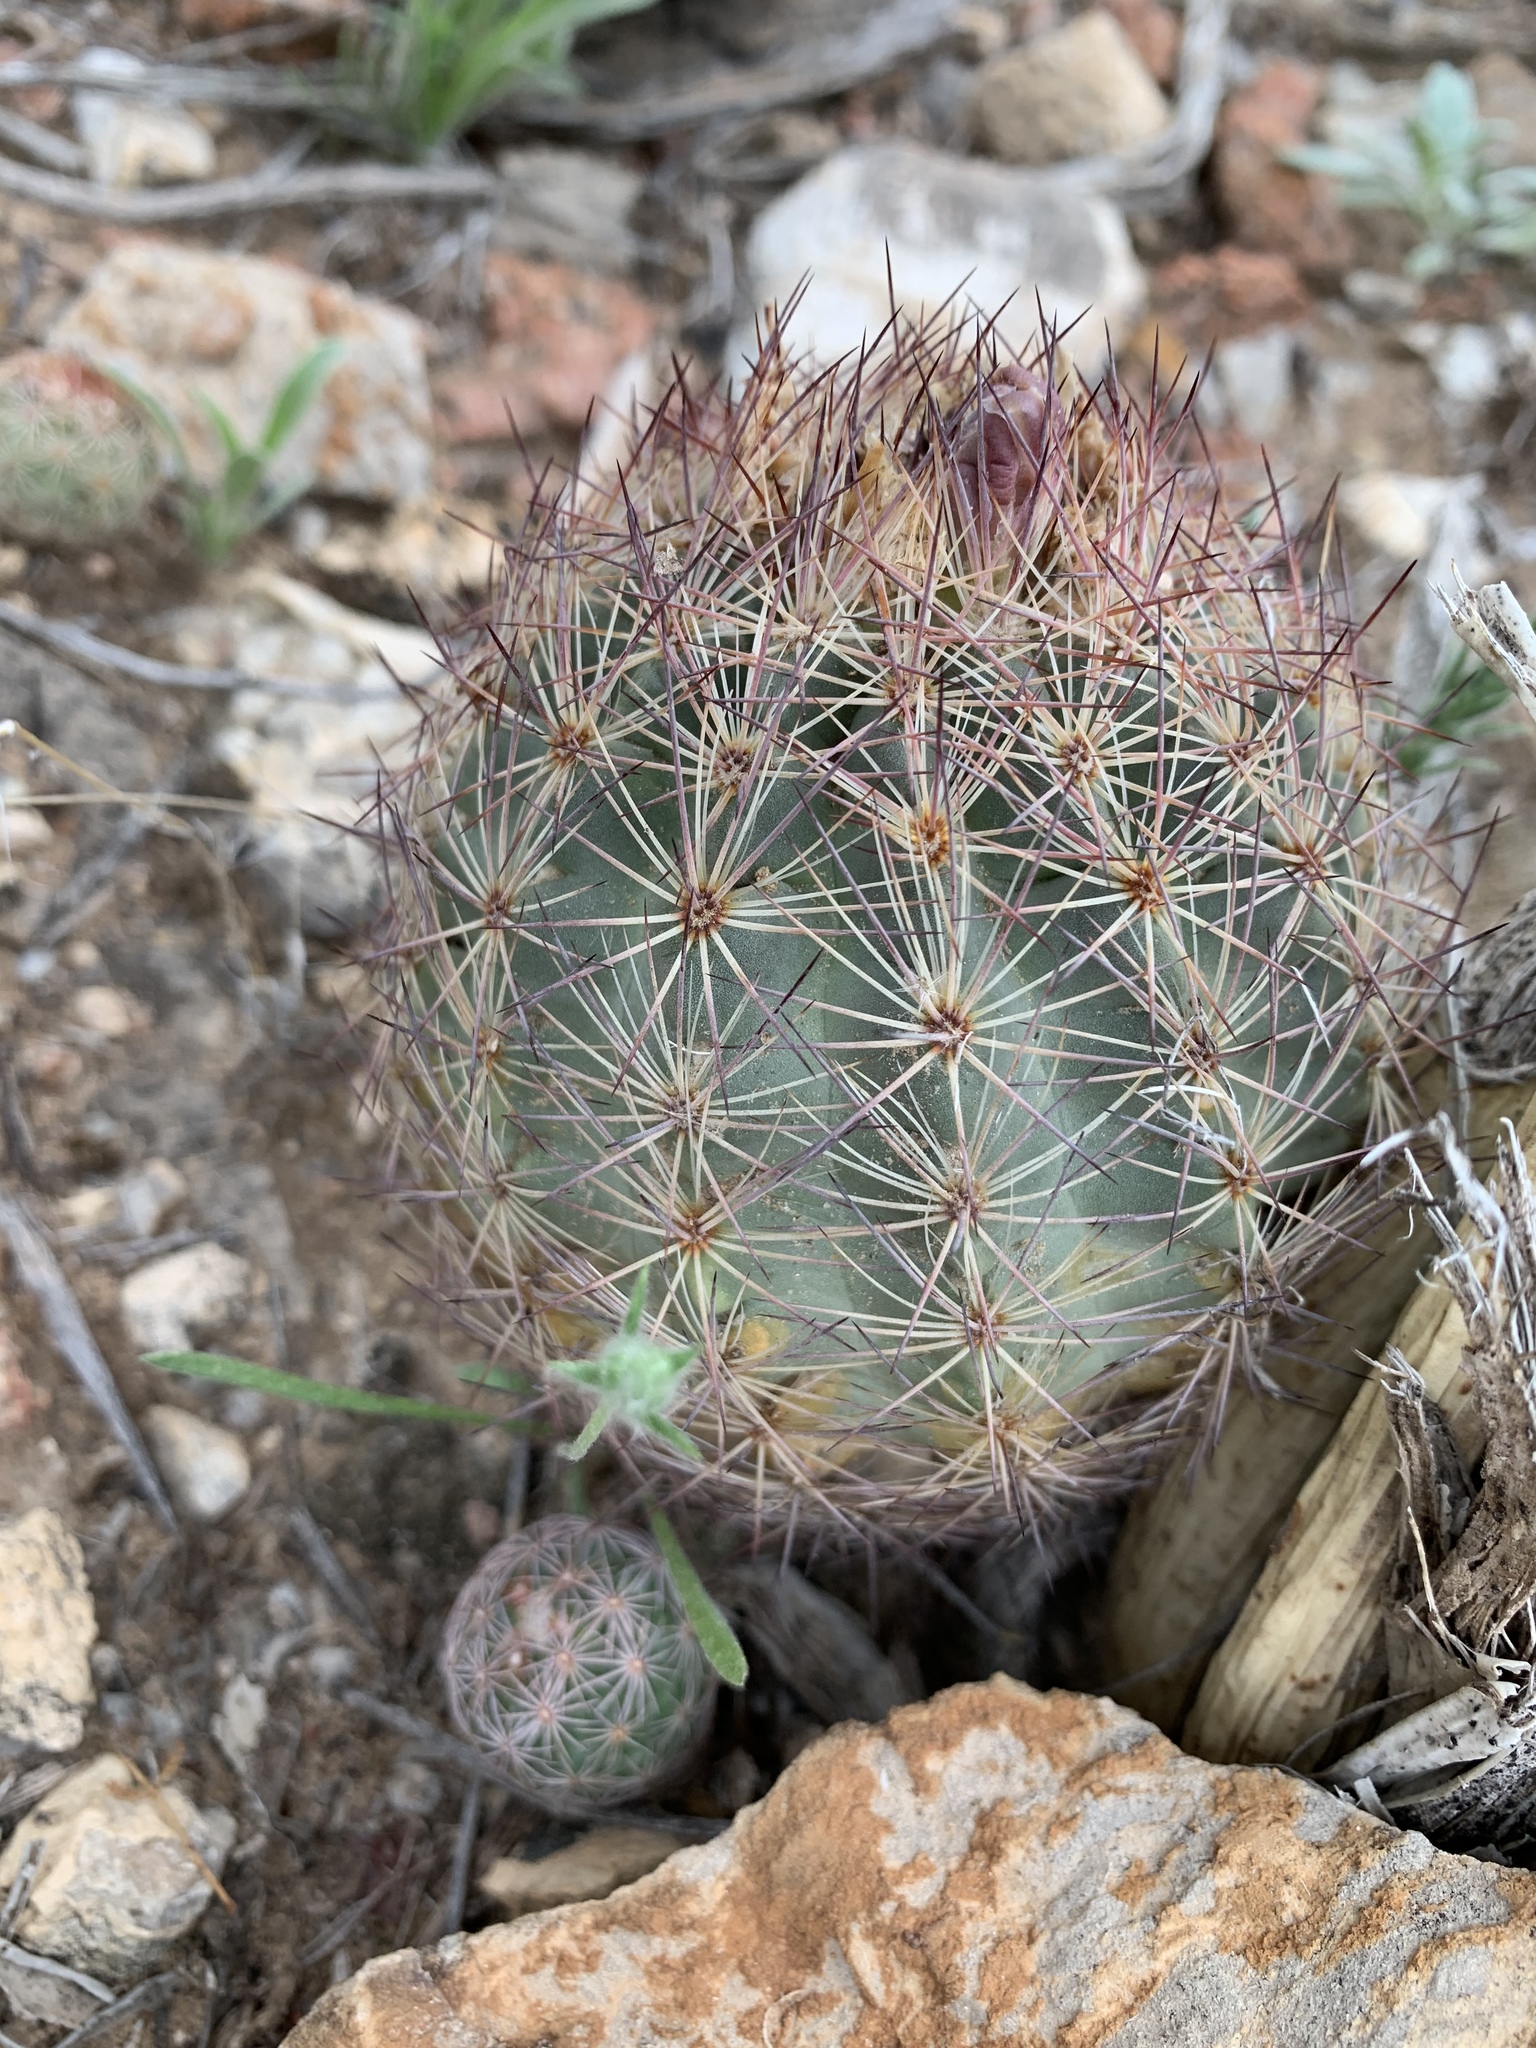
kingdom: Plantae
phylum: Tracheophyta
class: Magnoliopsida
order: Caryophyllales
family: Cactaceae
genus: Sclerocactus
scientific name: Sclerocactus intertextus
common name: White fish-hook cactus
